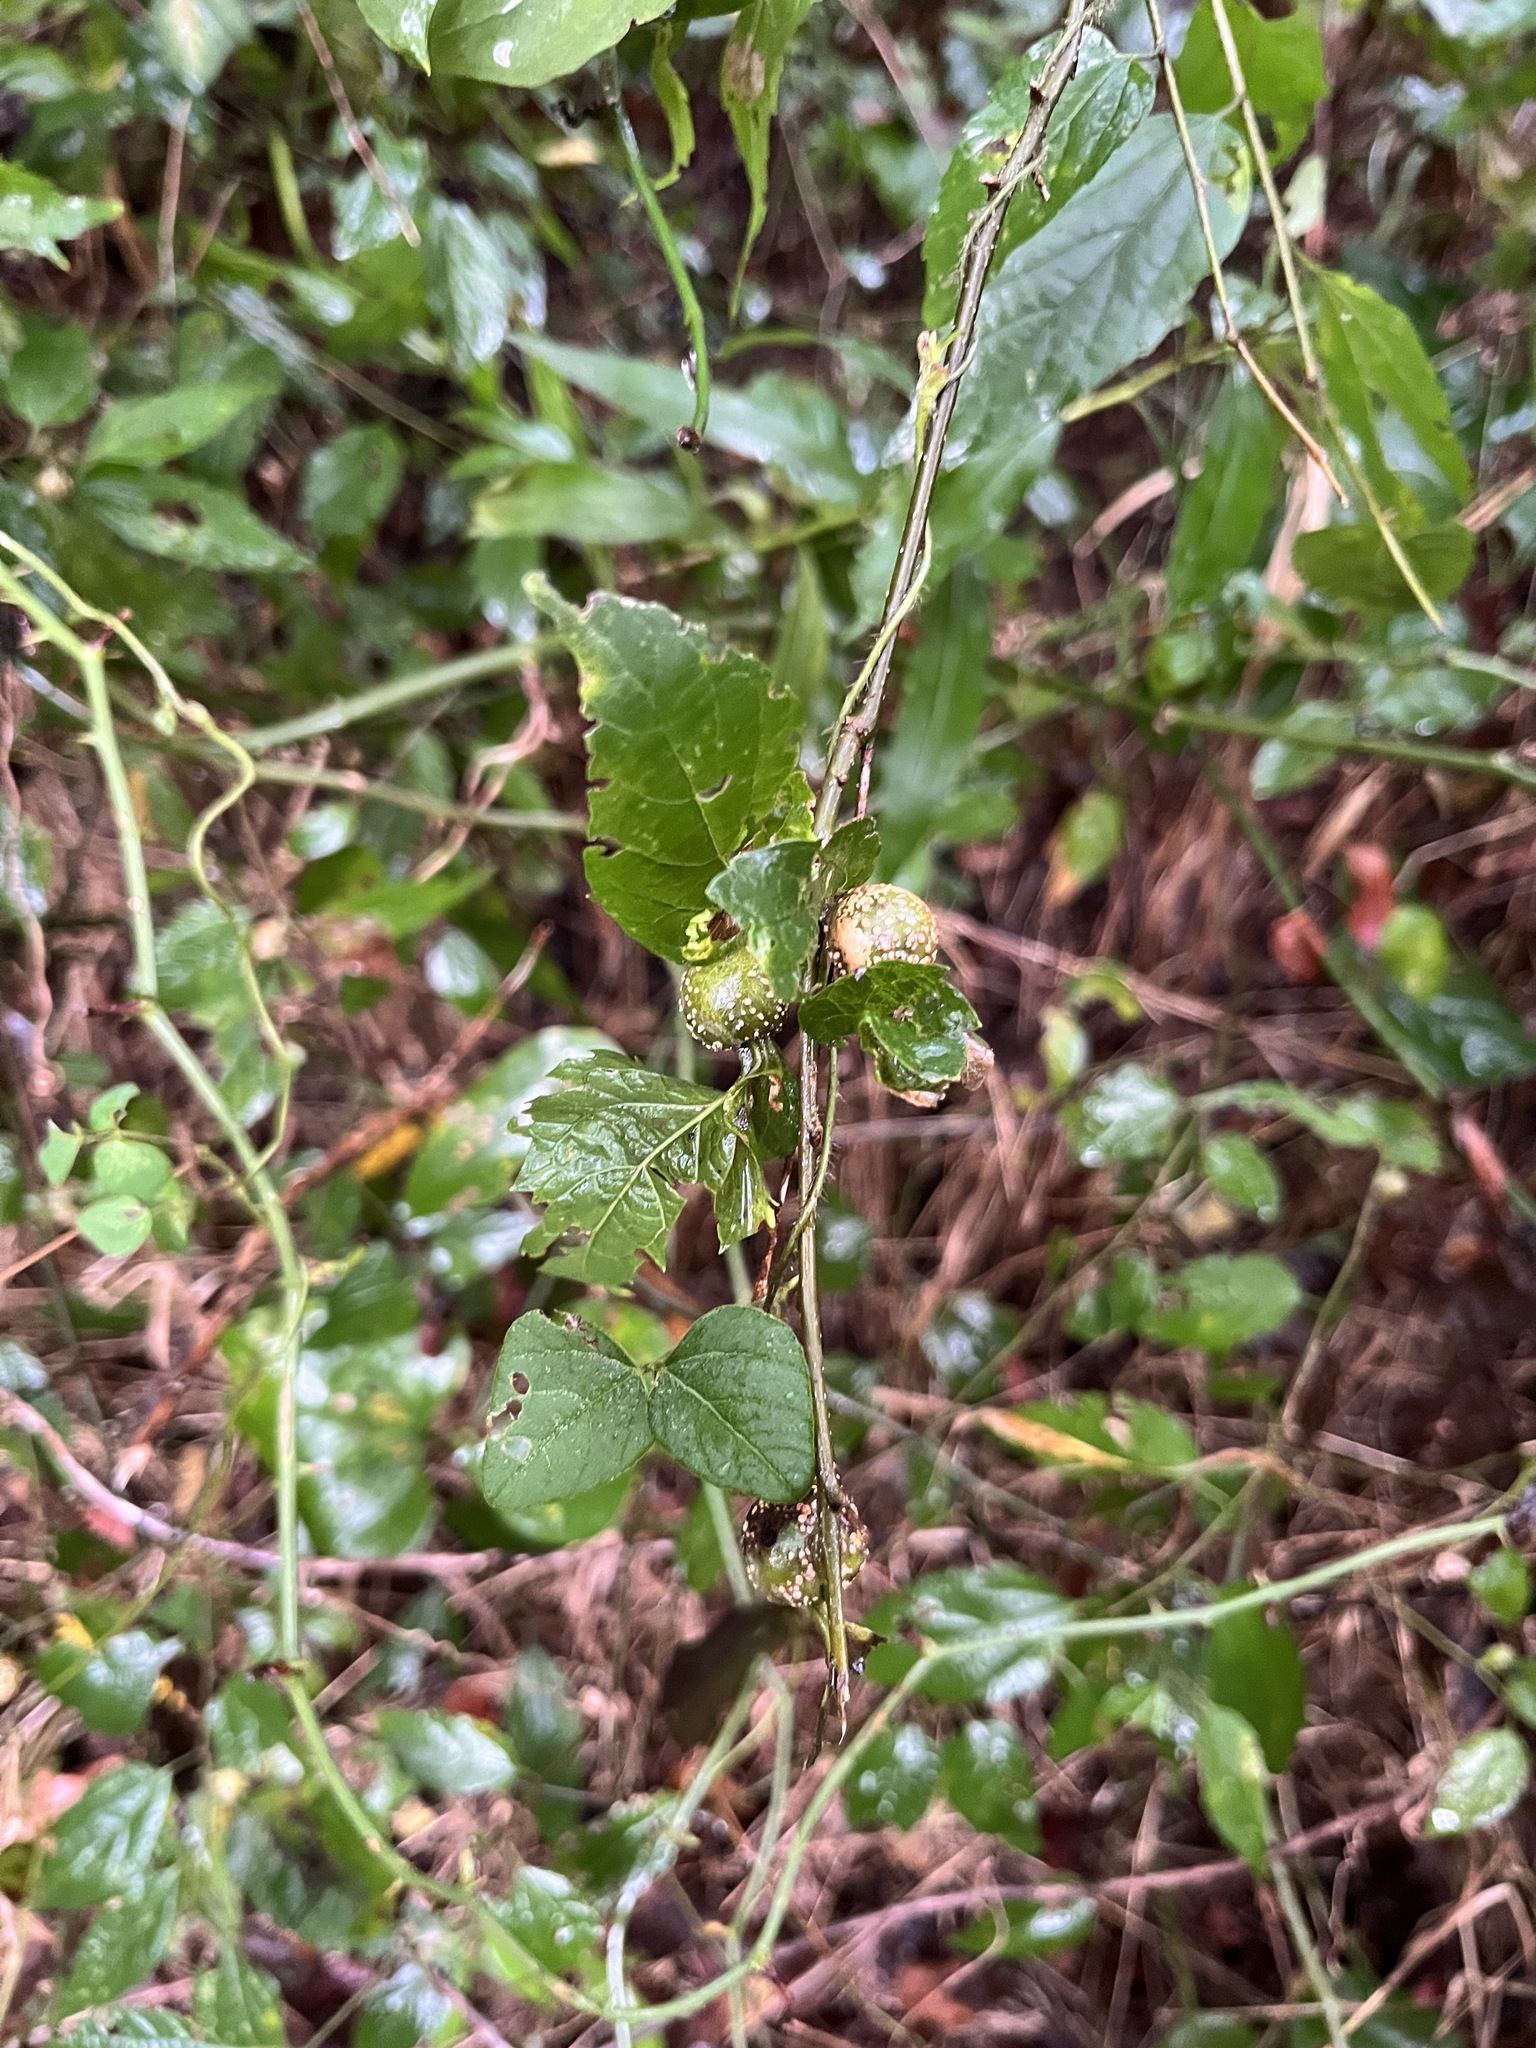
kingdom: Animalia
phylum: Arthropoda
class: Insecta
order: Hemiptera
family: Aphalaridae
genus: Pachypsylla
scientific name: Pachypsylla venusta
